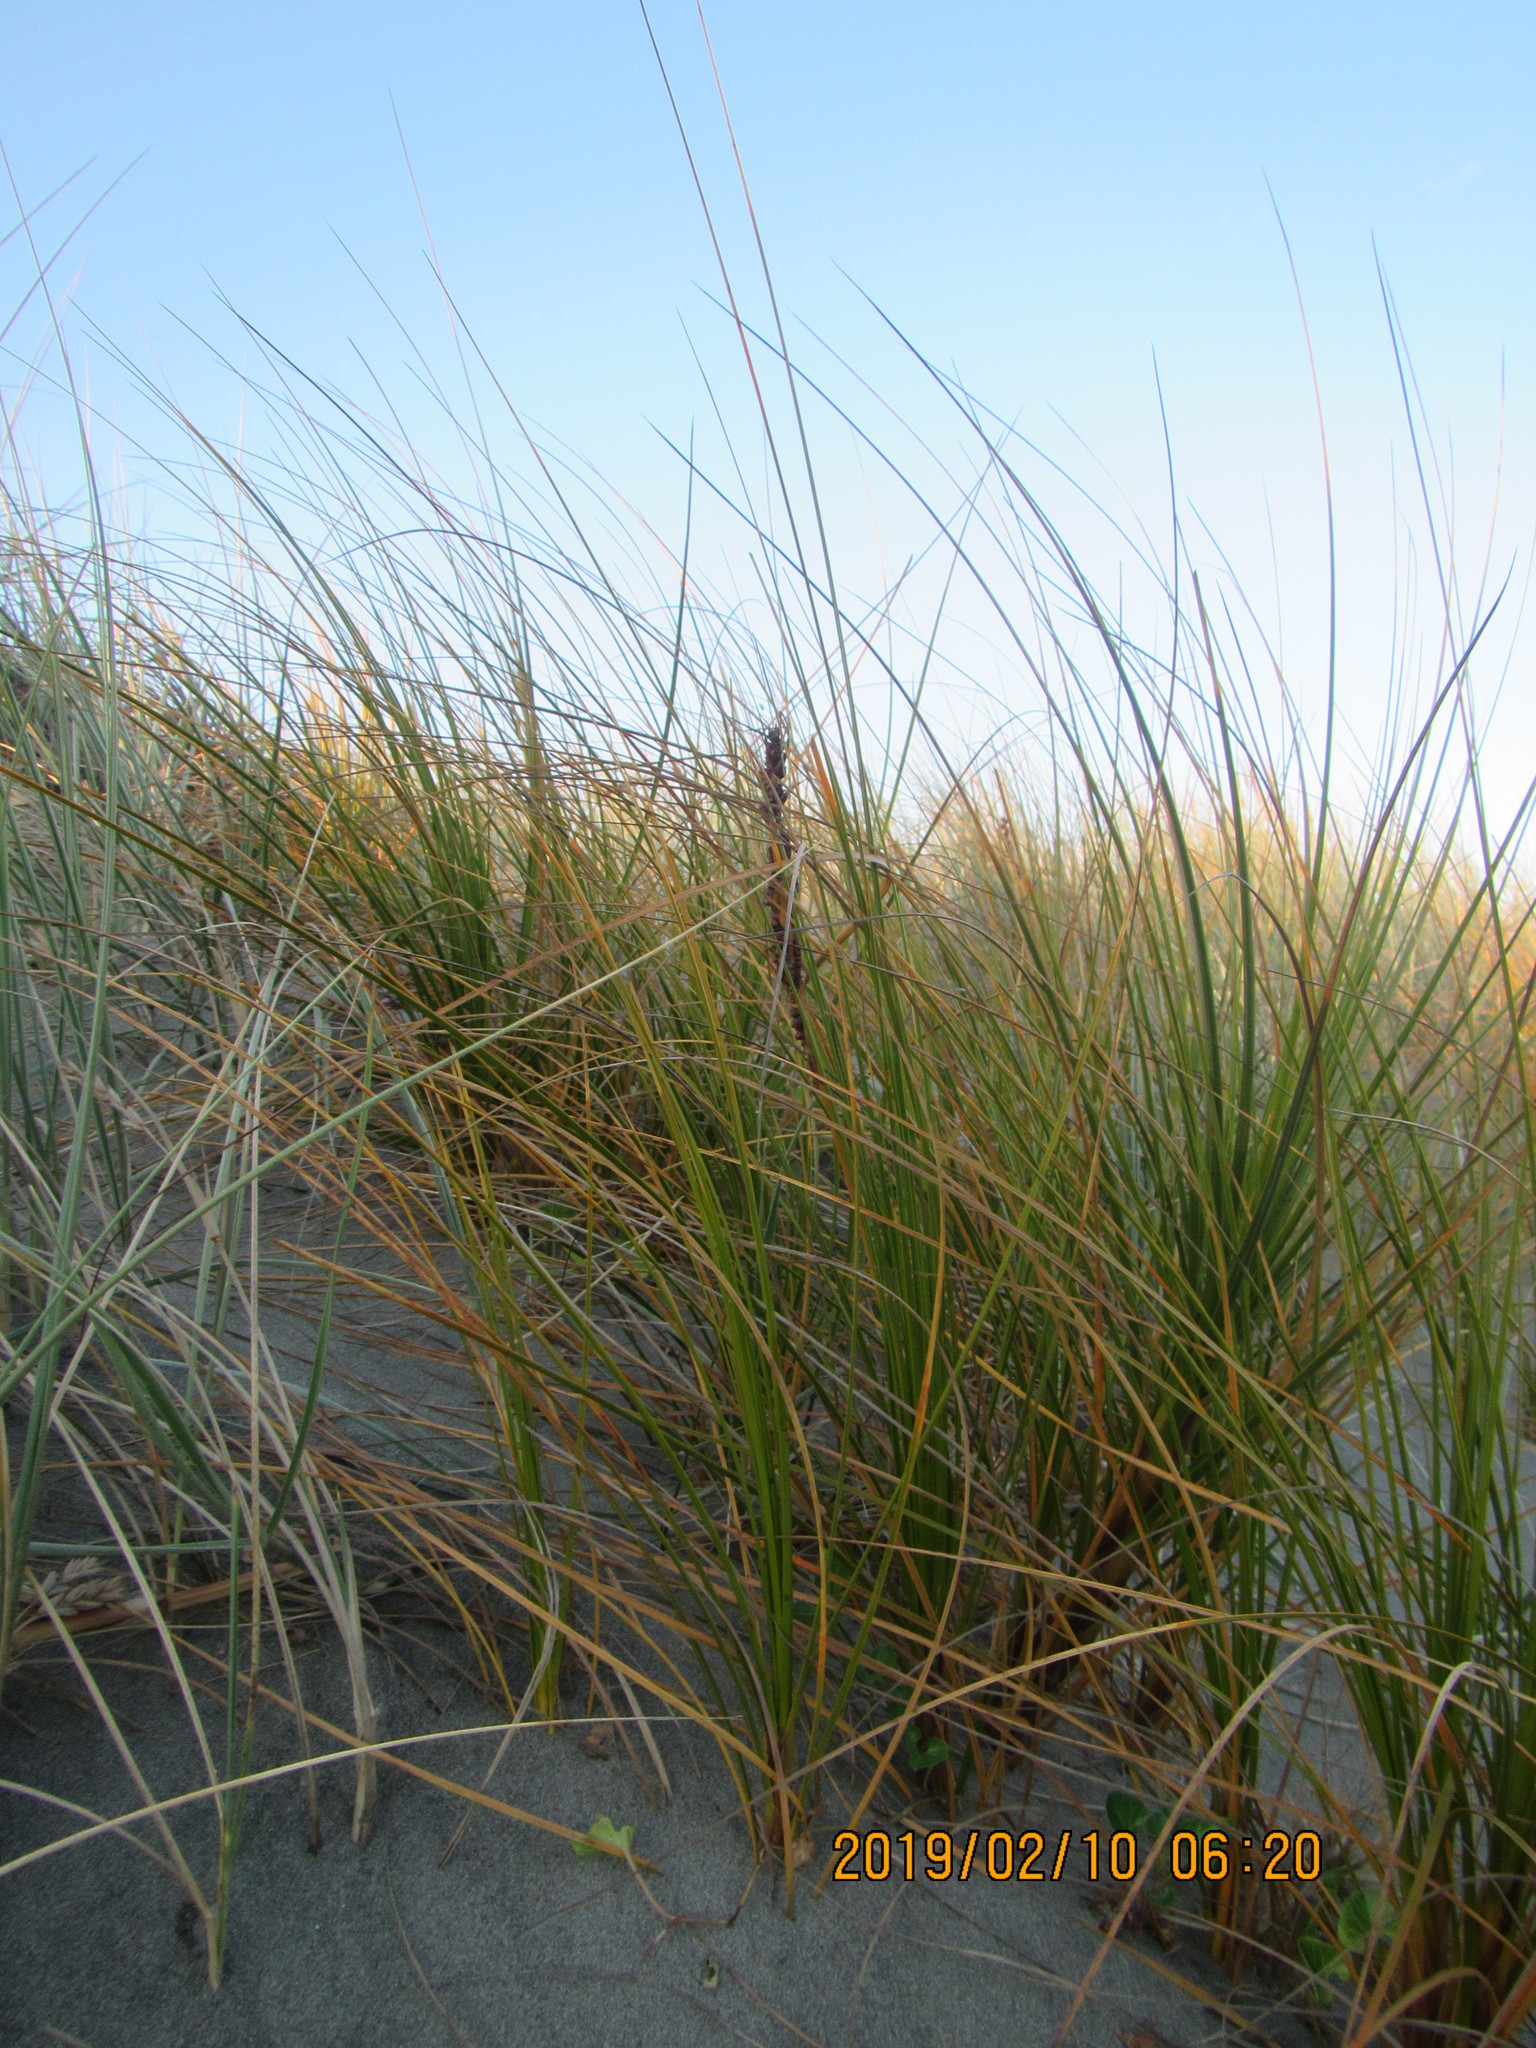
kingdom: Plantae
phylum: Tracheophyta
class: Liliopsida
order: Poales
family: Cyperaceae
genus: Ficinia
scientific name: Ficinia spiralis
